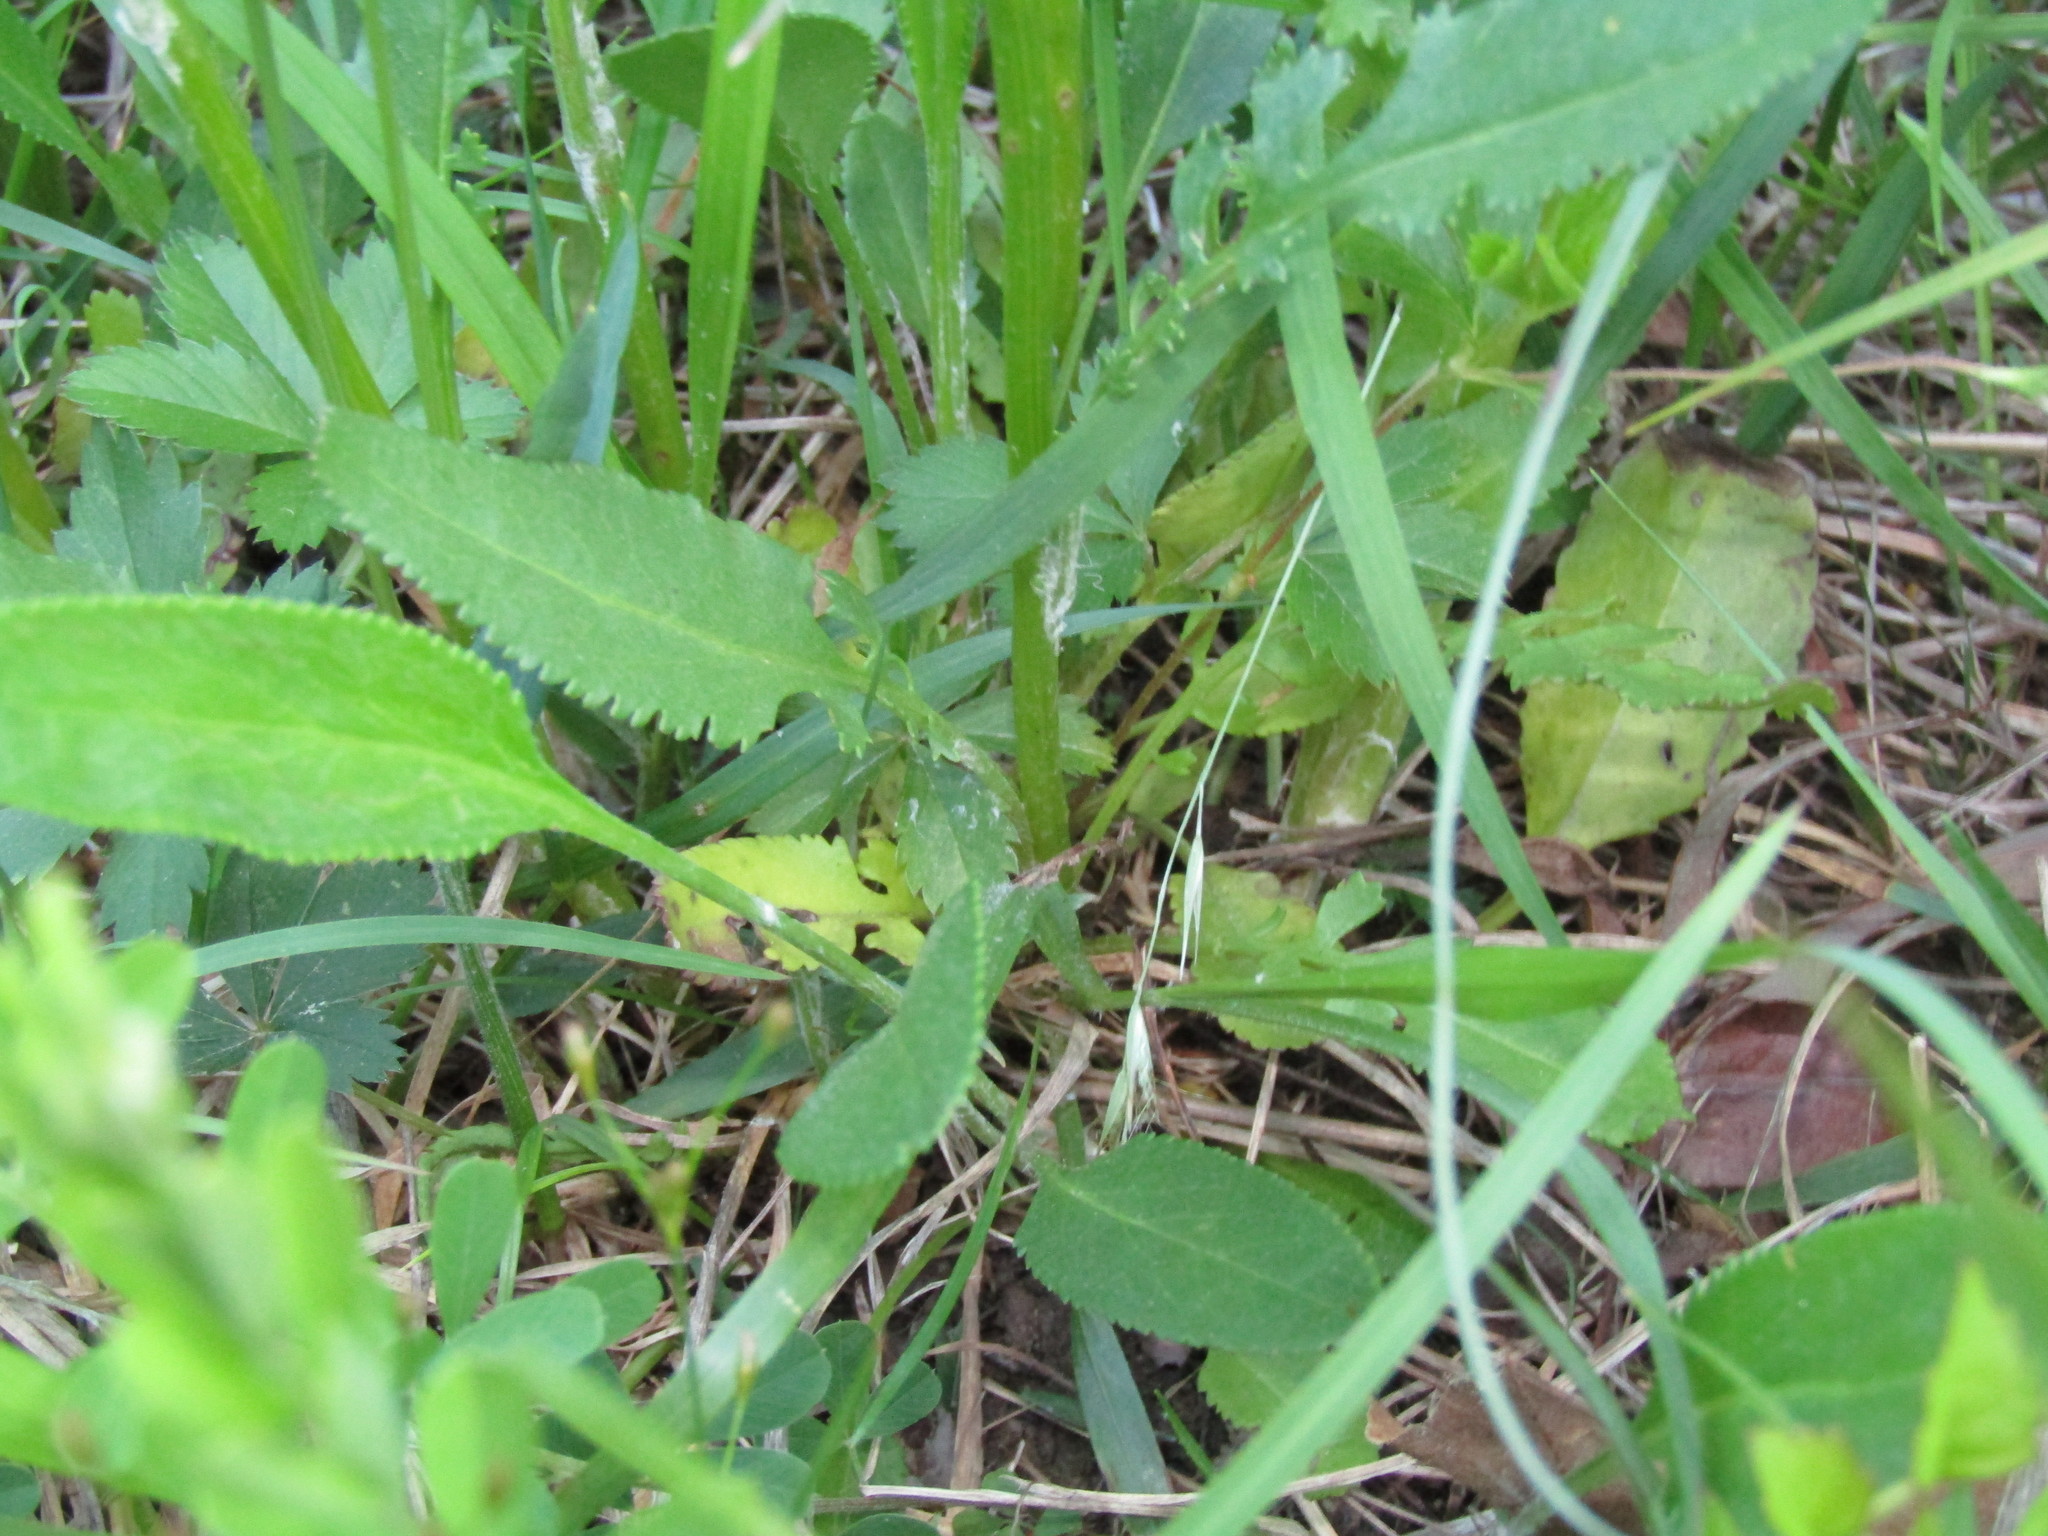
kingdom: Plantae
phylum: Tracheophyta
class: Magnoliopsida
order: Asterales
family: Asteraceae
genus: Packera
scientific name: Packera anonyma
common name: Small ragwort
